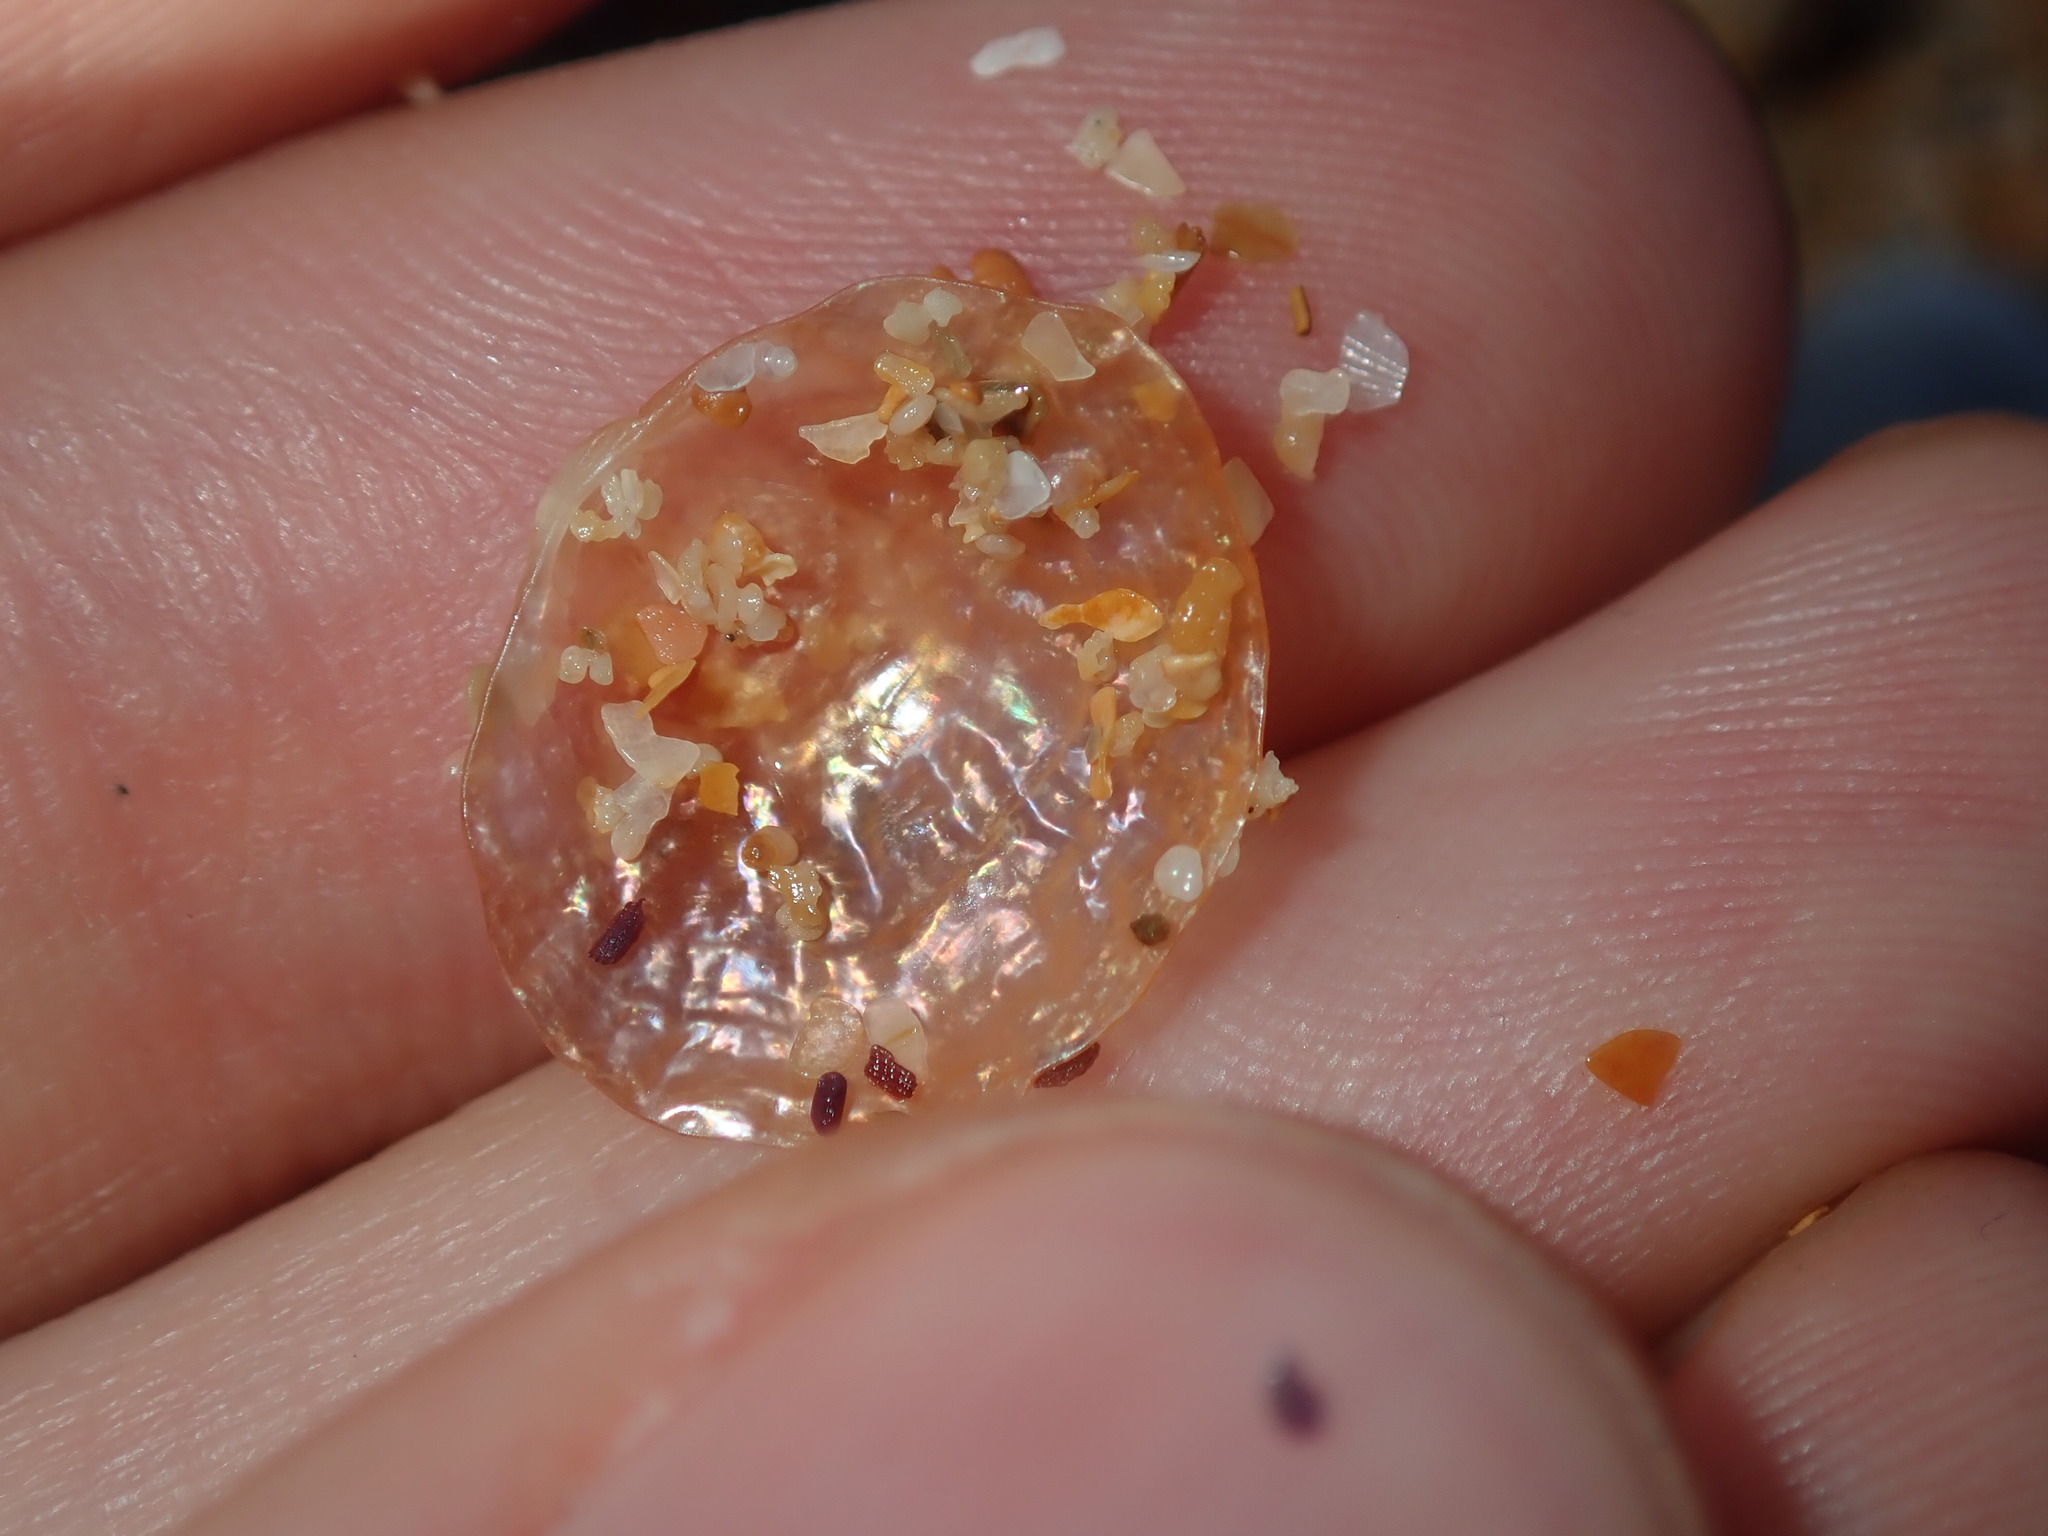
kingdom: Animalia
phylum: Mollusca
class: Bivalvia
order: Pectinida
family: Anomiidae
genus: Anomia
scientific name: Anomia trigonopsis
